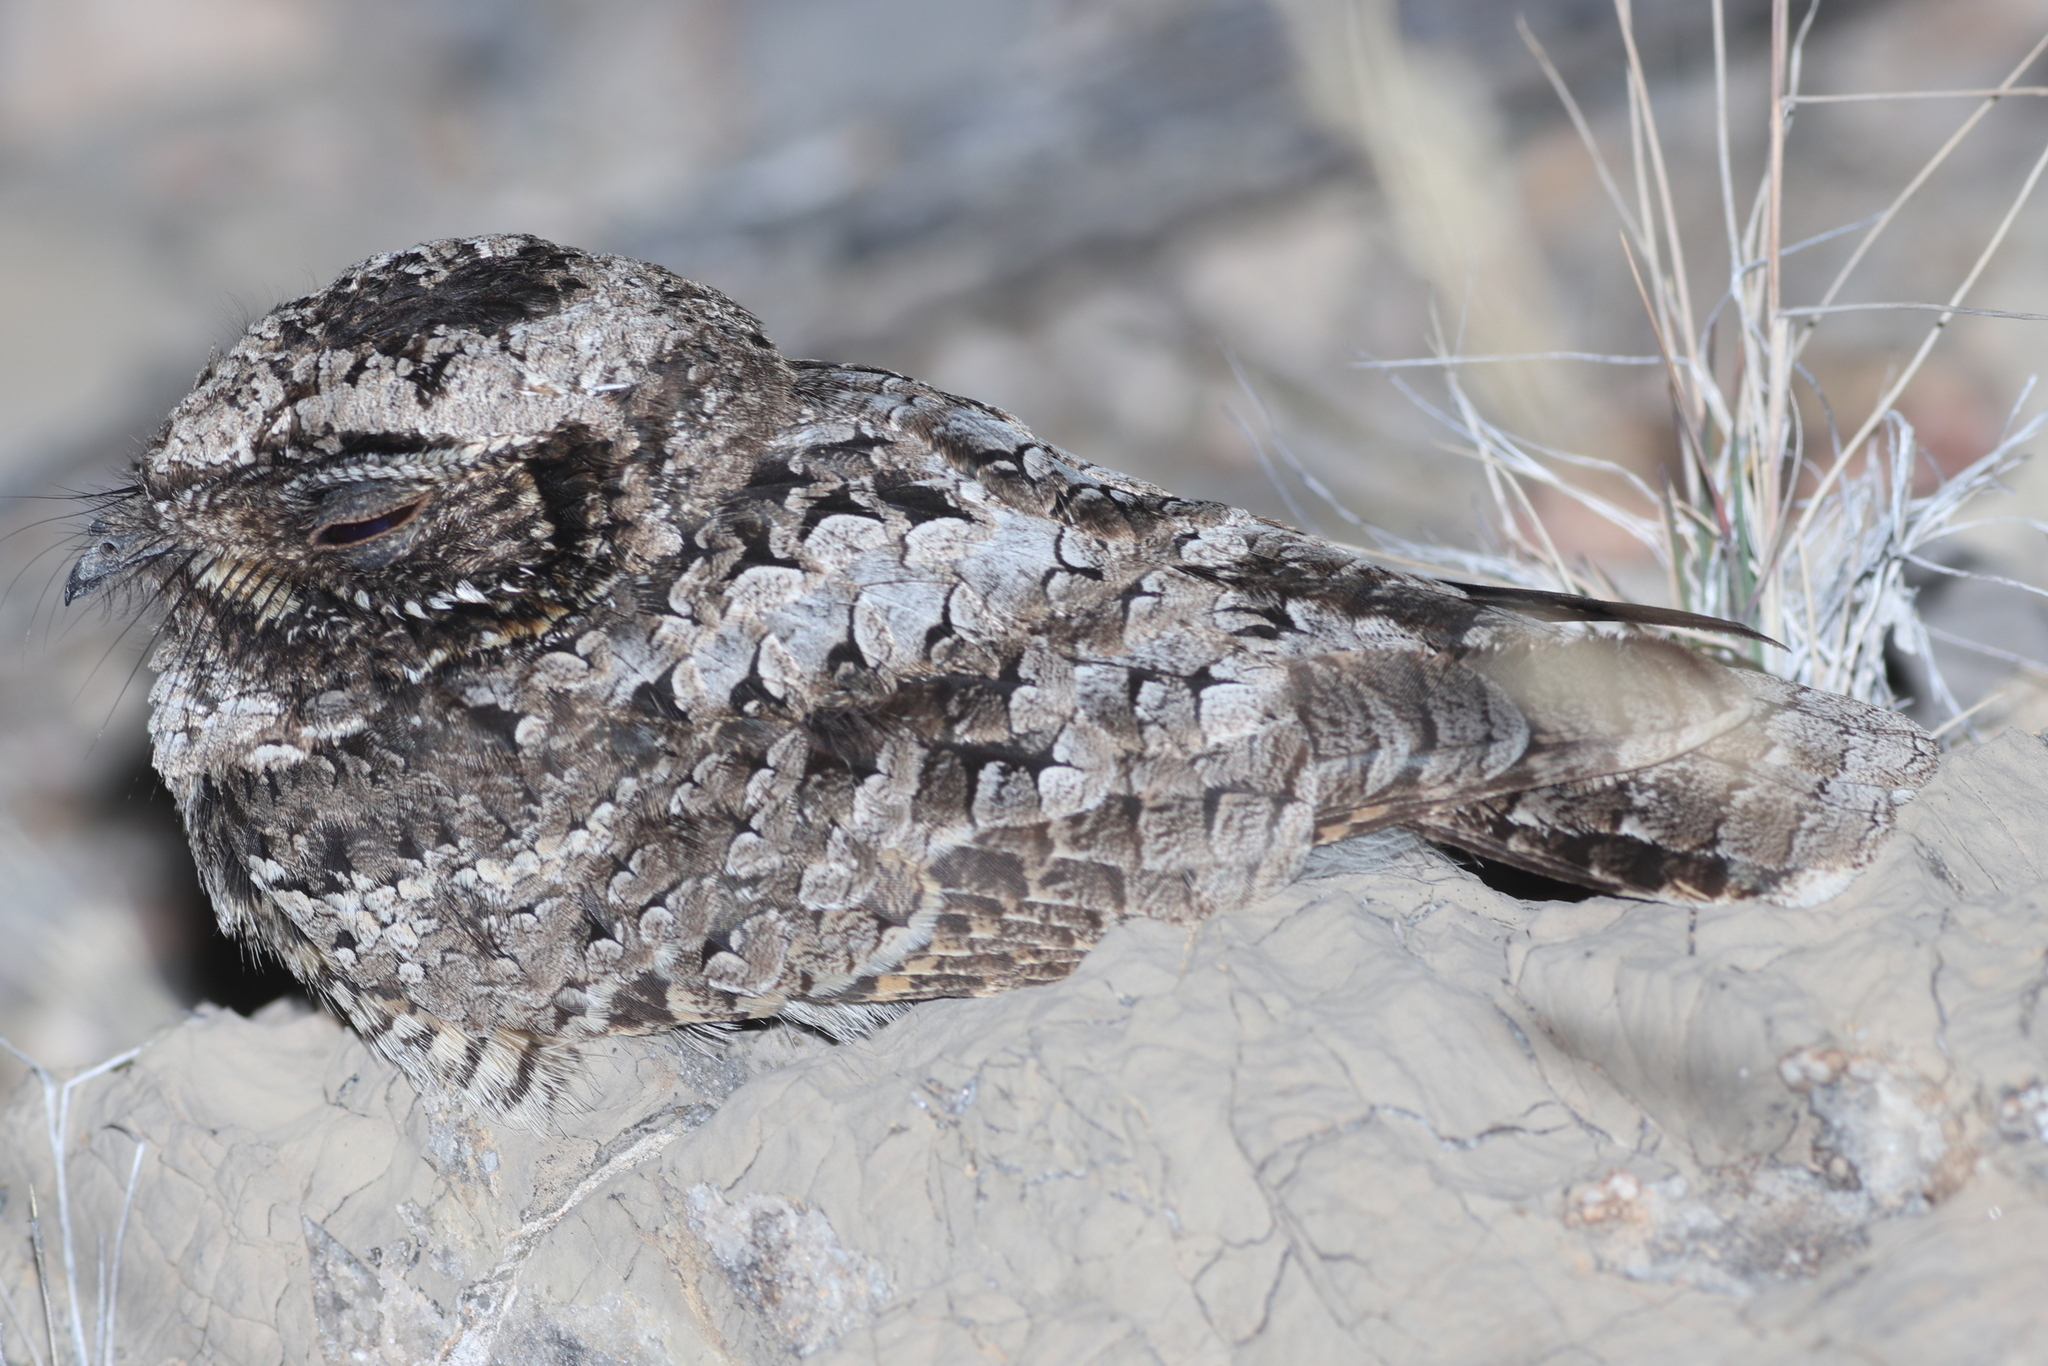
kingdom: Animalia
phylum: Chordata
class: Aves
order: Caprimulgiformes
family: Caprimulgidae
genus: Phalaenoptilus
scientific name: Phalaenoptilus nuttallii
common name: Common poorwill
